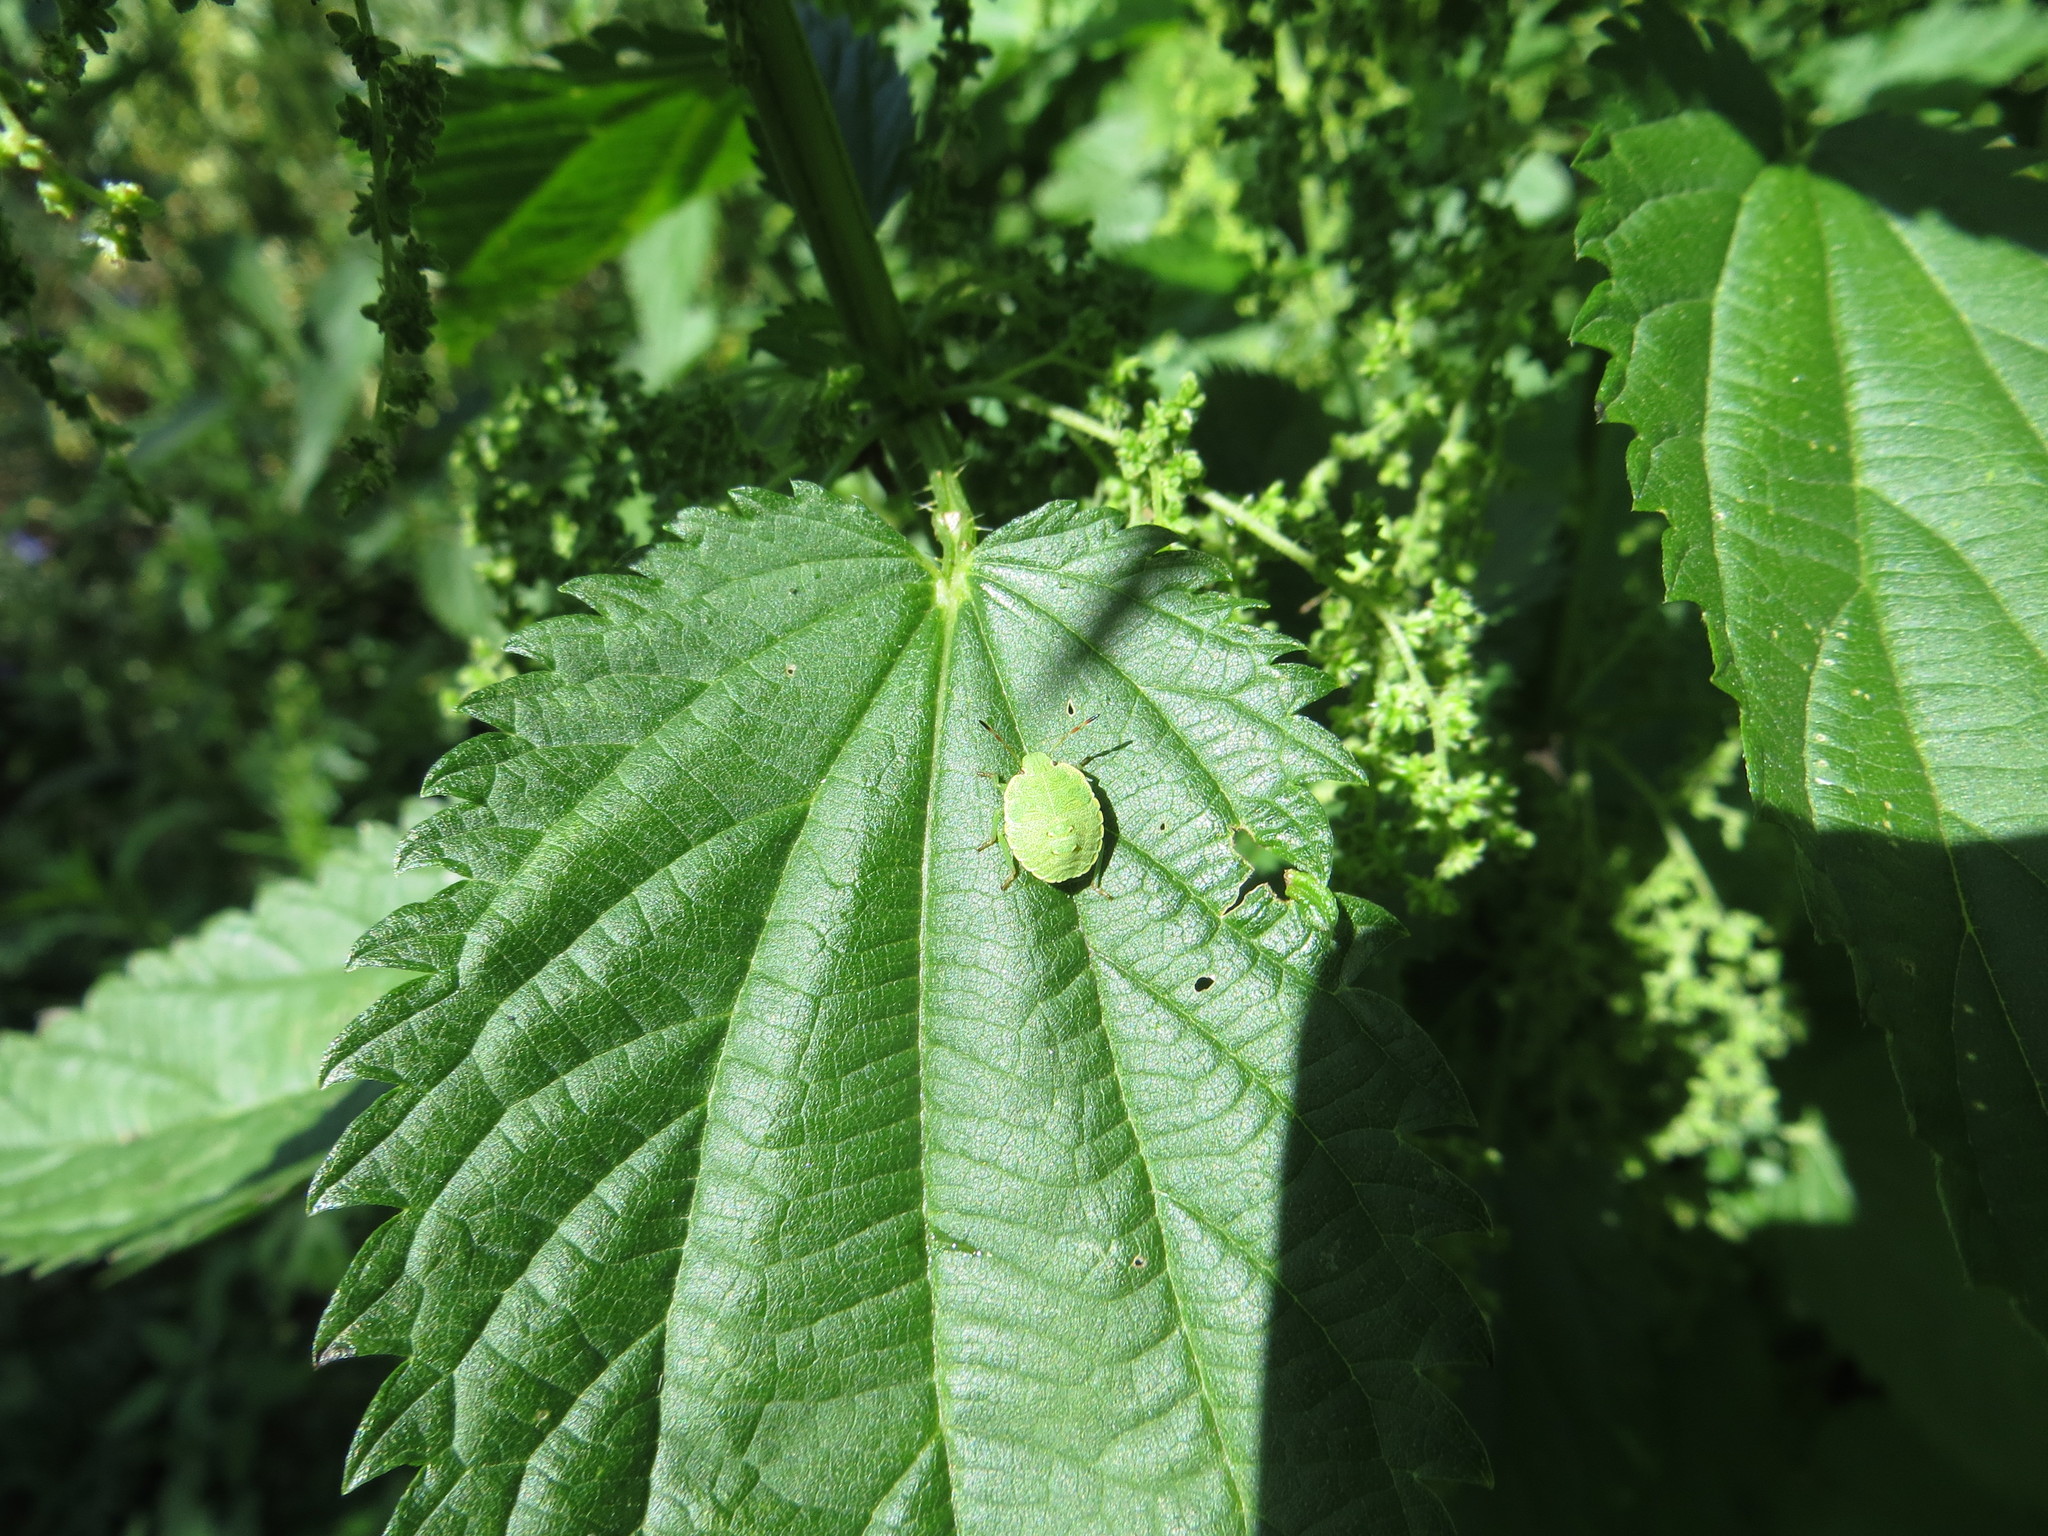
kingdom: Animalia
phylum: Arthropoda
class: Insecta
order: Hemiptera
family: Pentatomidae
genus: Palomena
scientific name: Palomena prasina
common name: Green shieldbug
